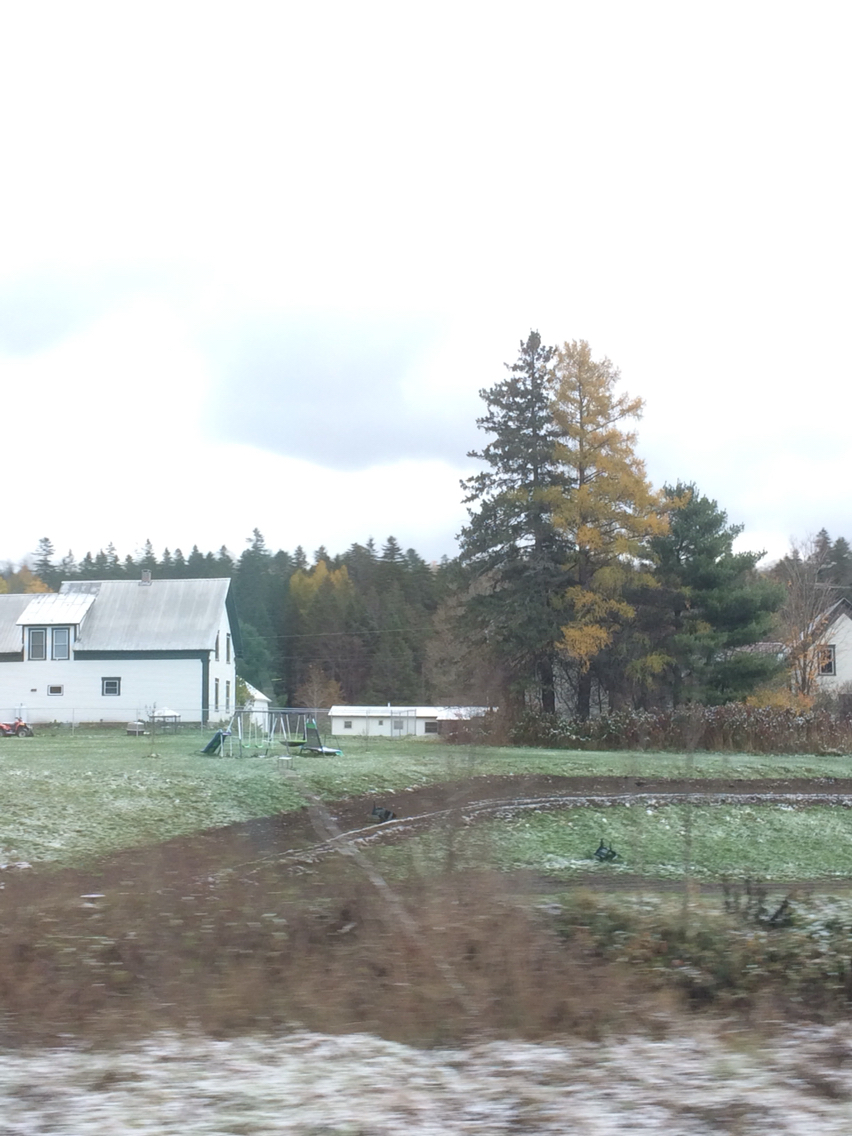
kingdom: Plantae
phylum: Tracheophyta
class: Pinopsida
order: Pinales
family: Pinaceae
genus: Larix
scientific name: Larix laricina
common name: American larch
